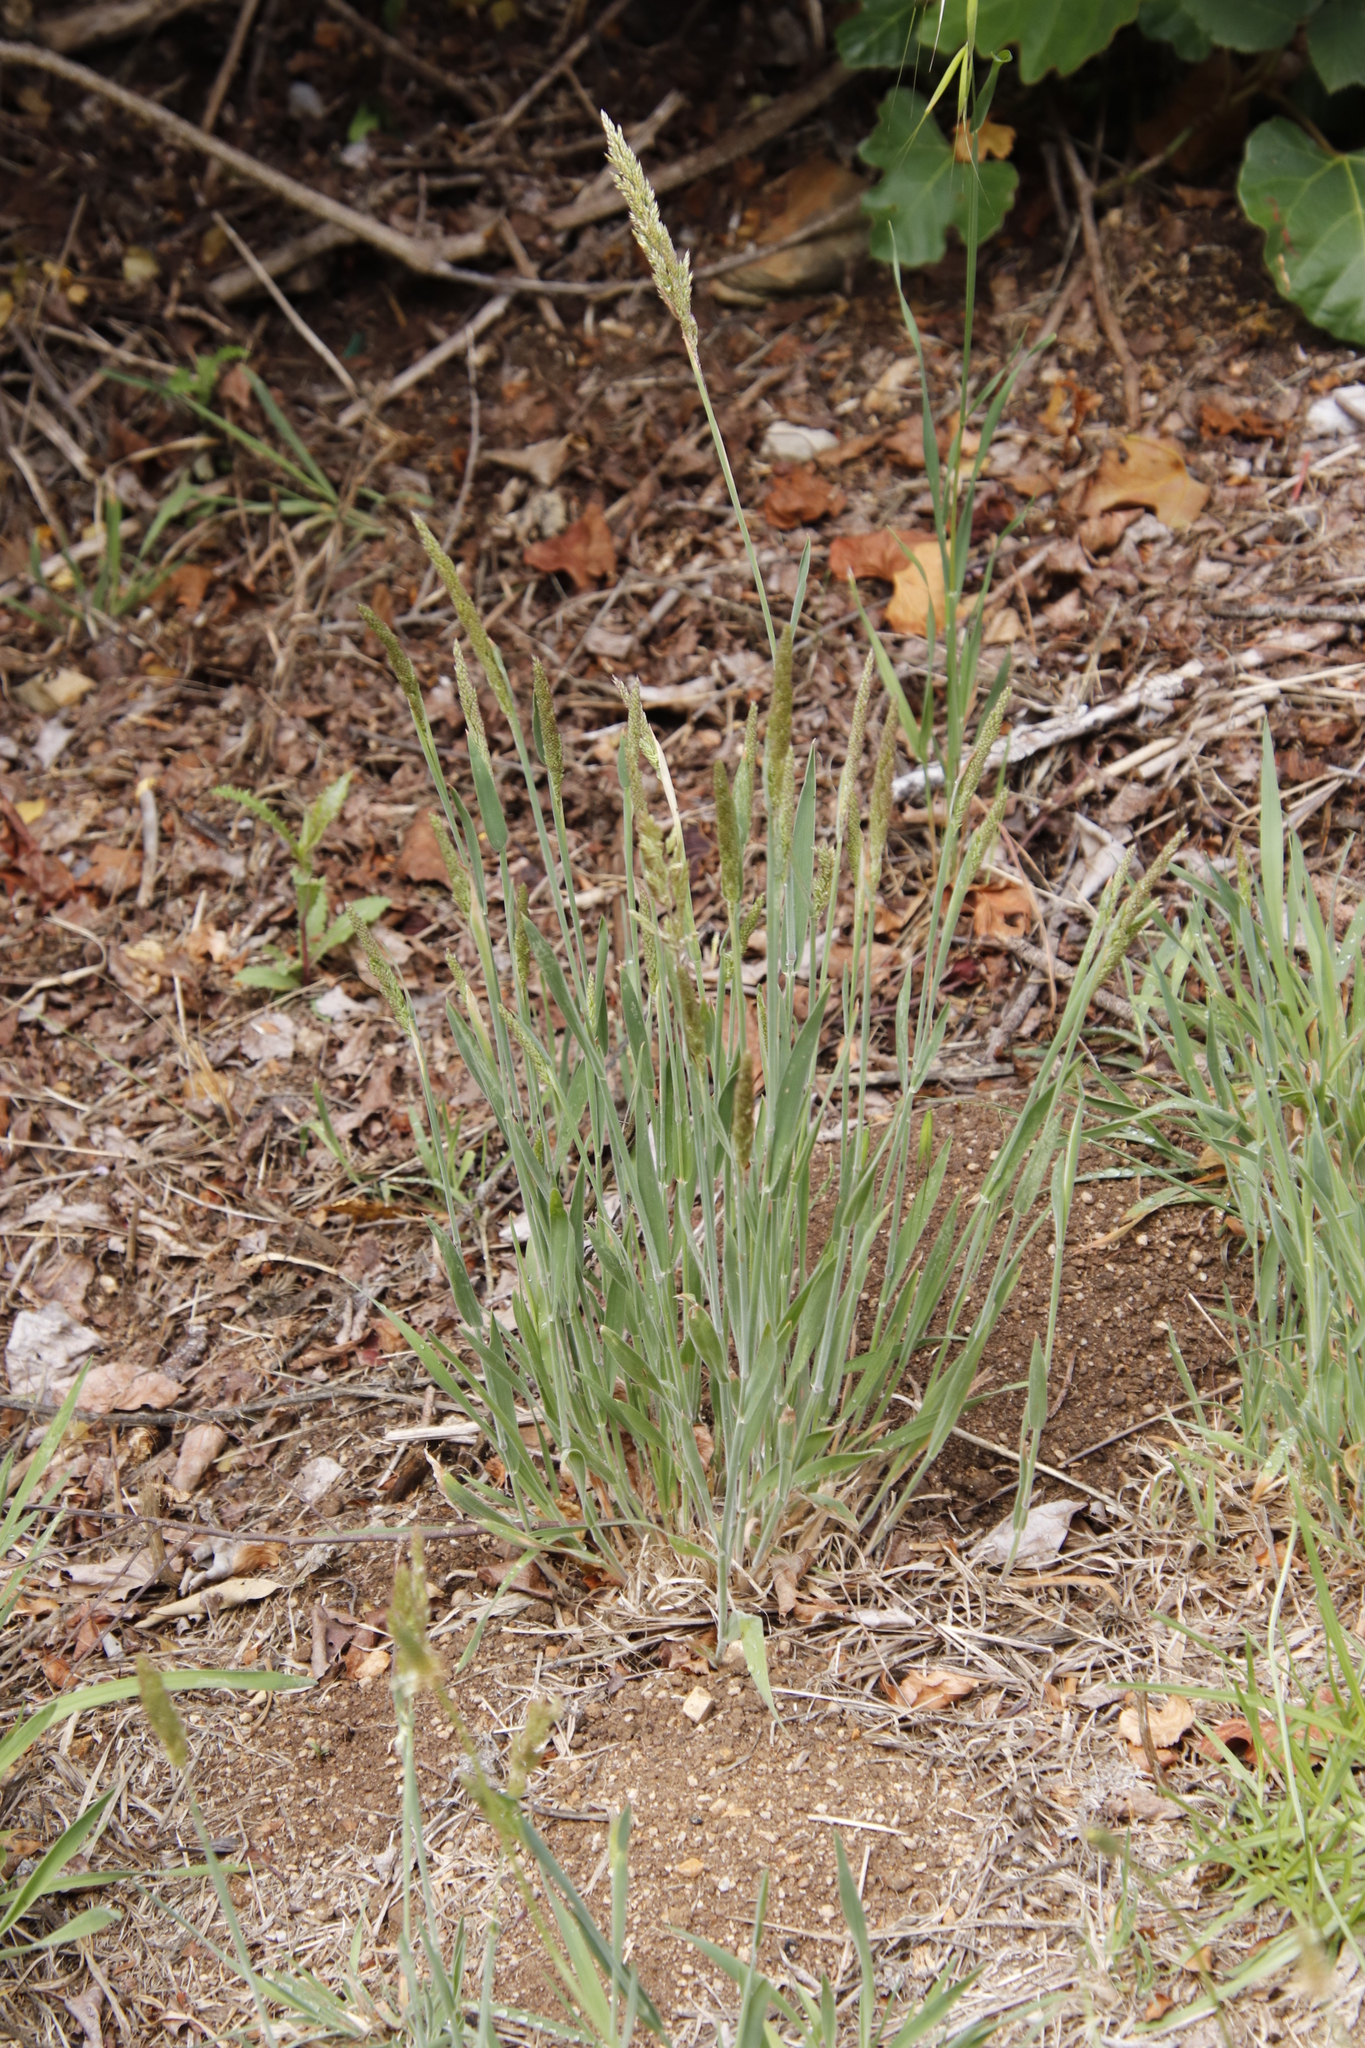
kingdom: Plantae
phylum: Tracheophyta
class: Liliopsida
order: Poales
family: Poaceae
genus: Holcus
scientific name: Holcus lanatus
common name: Yorkshire-fog
